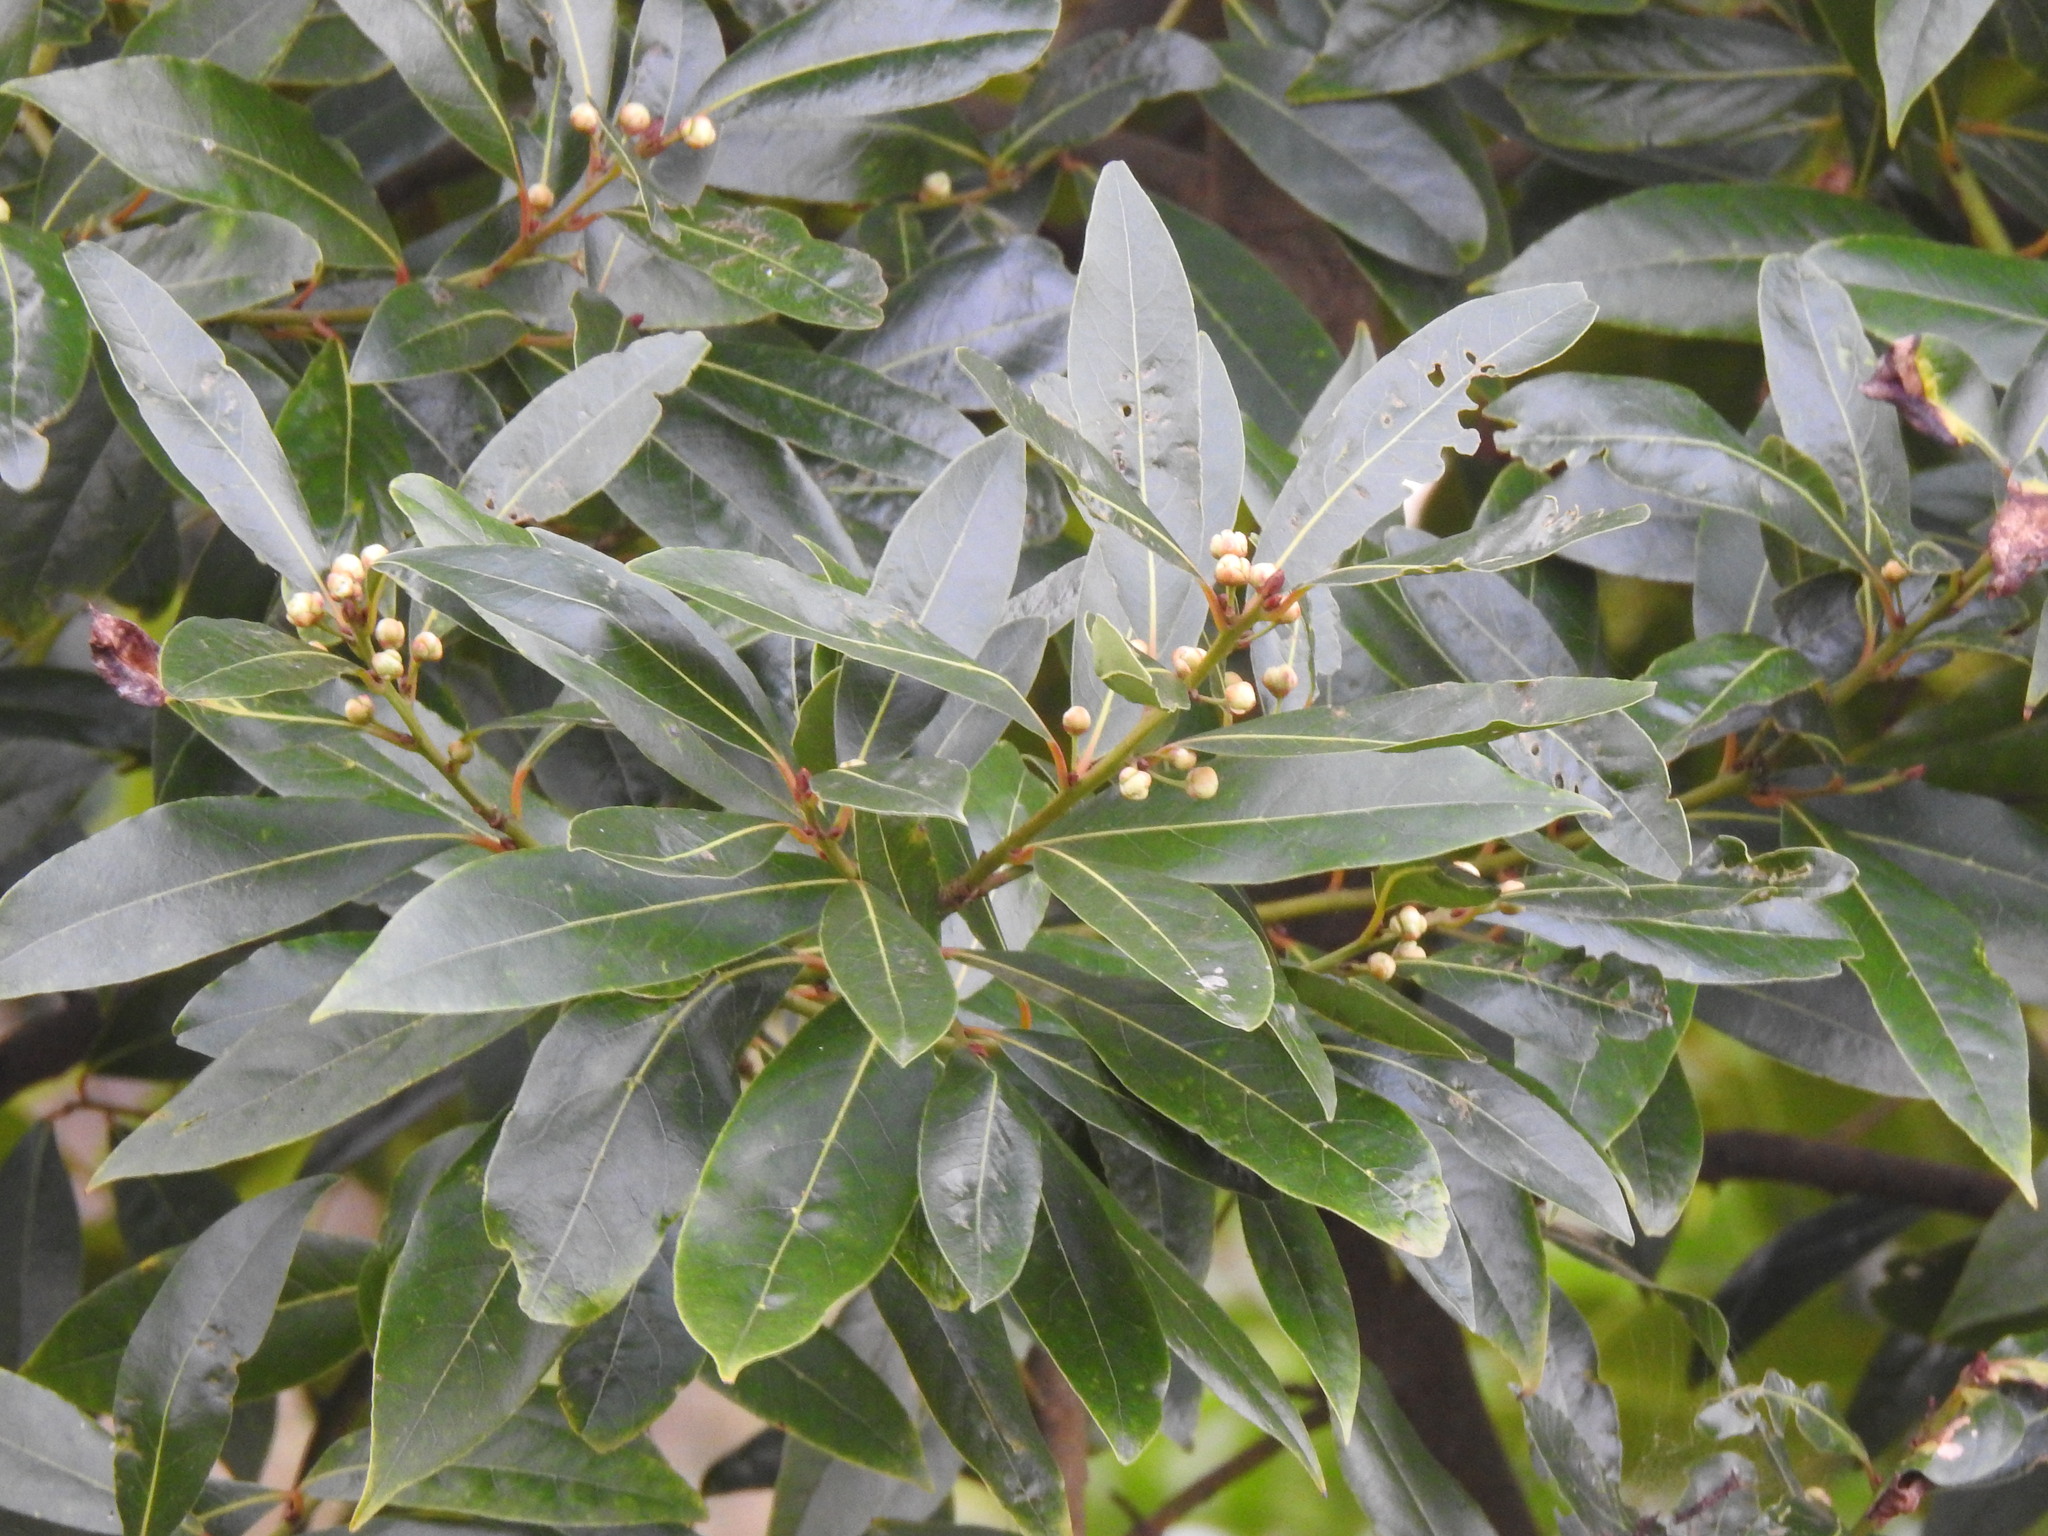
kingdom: Plantae
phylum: Tracheophyta
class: Magnoliopsida
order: Laurales
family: Lauraceae
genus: Laurus
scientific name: Laurus nobilis
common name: Bay
